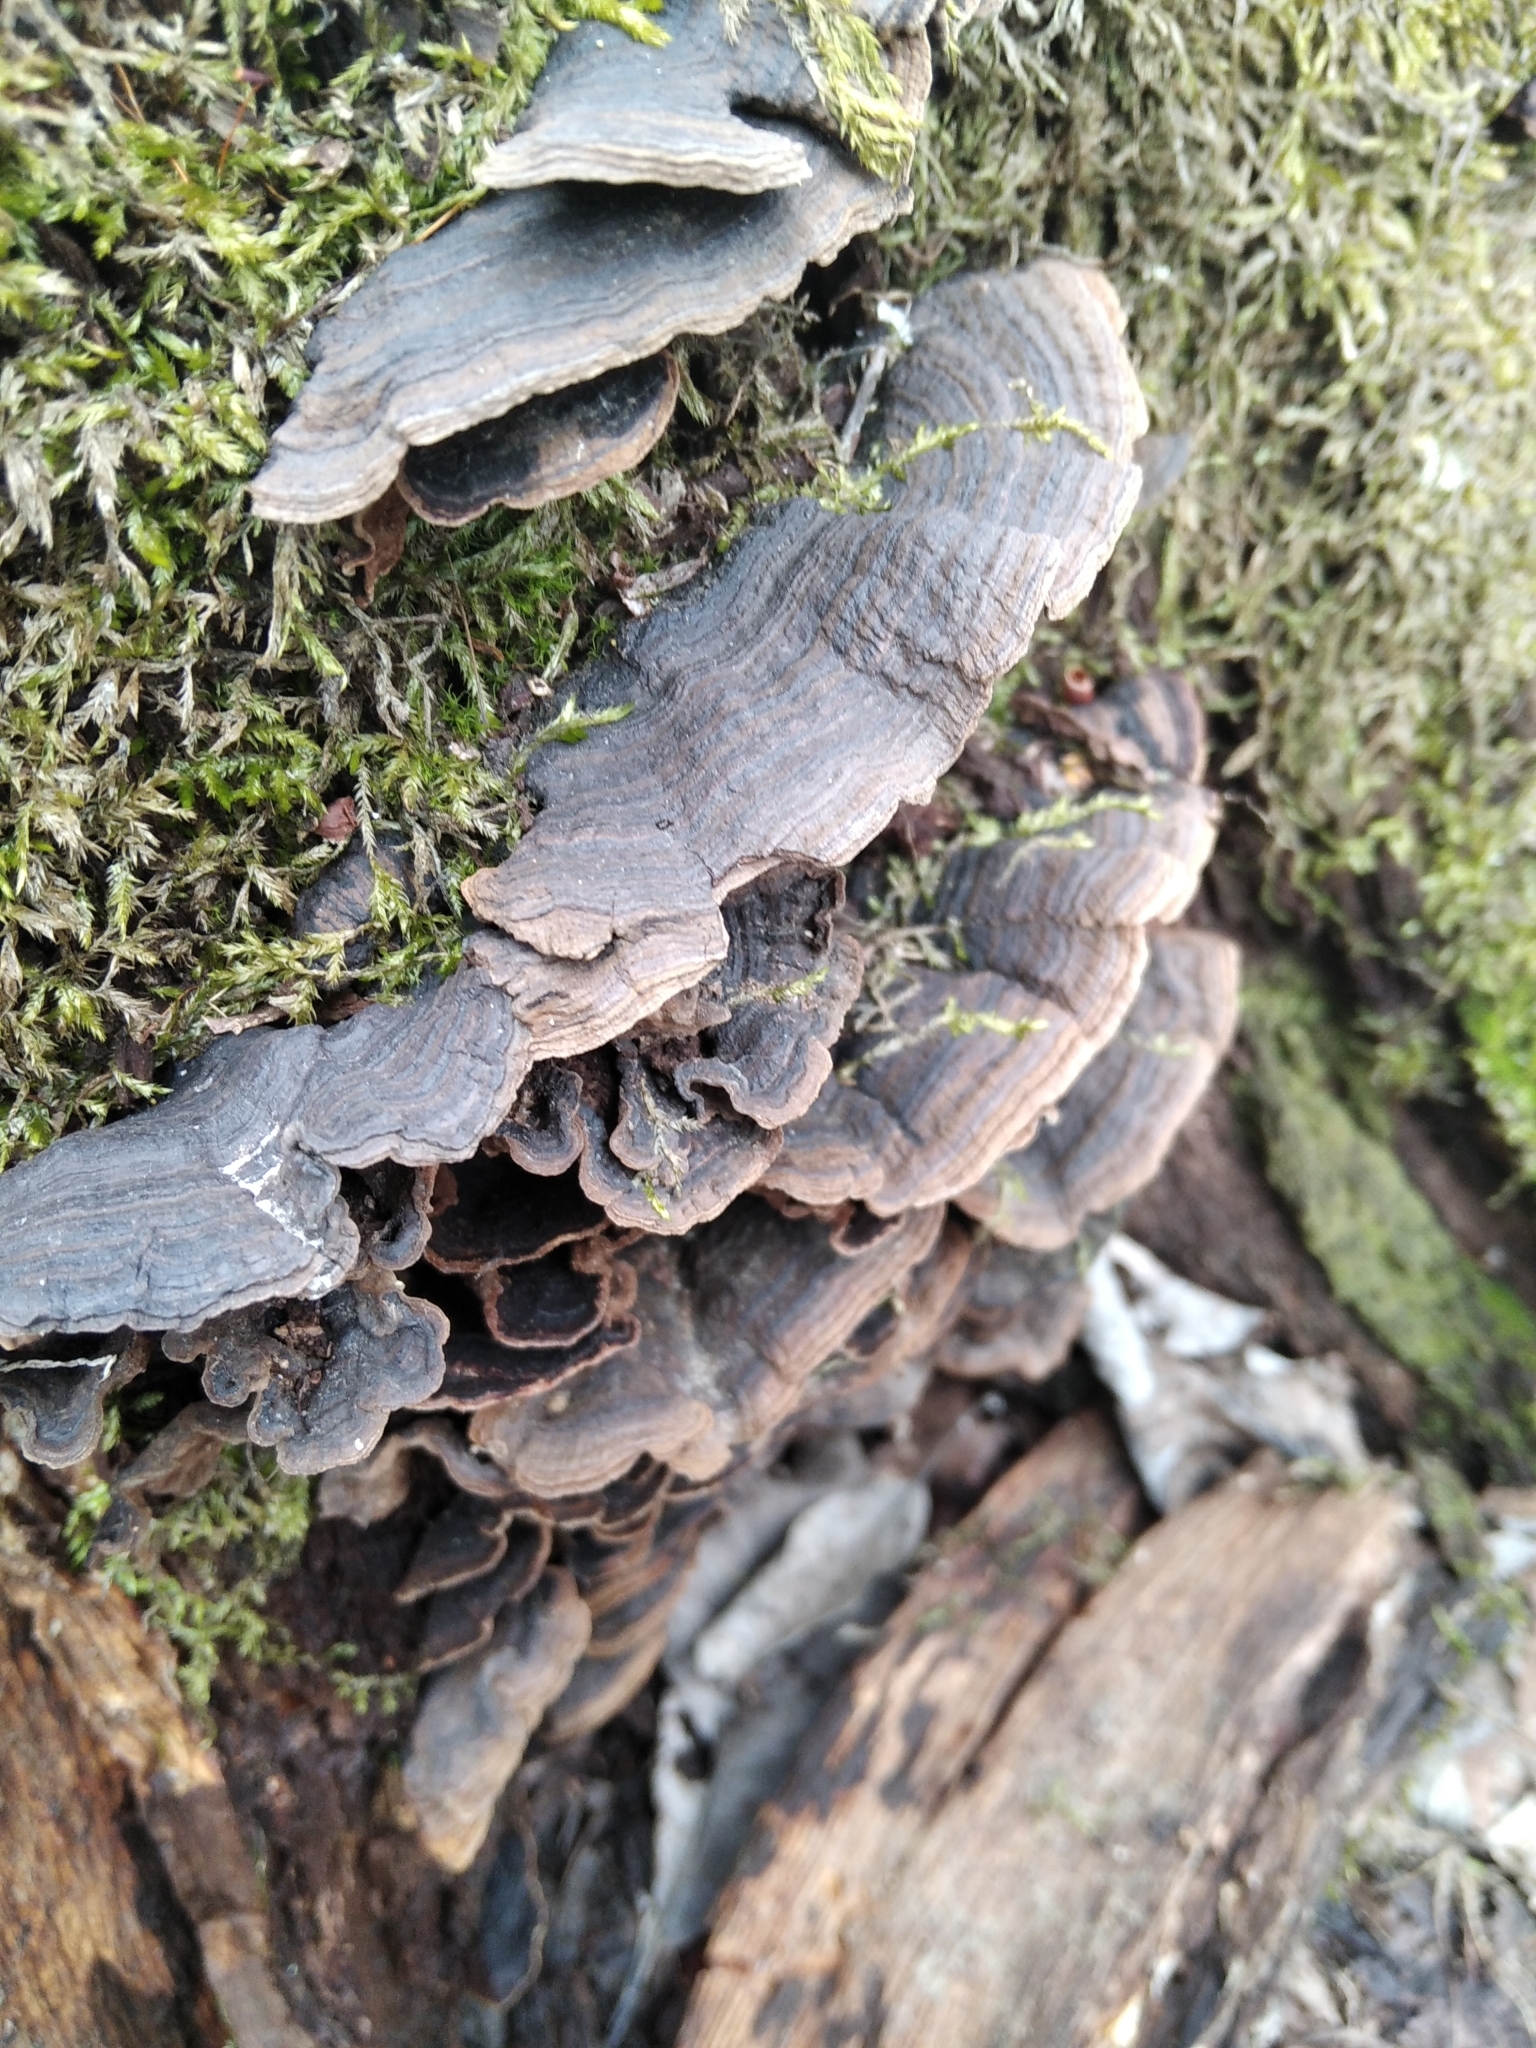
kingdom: Fungi
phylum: Basidiomycota
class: Agaricomycetes
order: Hymenochaetales
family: Hymenochaetaceae
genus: Hymenochaete
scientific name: Hymenochaete rubiginosa
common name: Oak curtain crust
